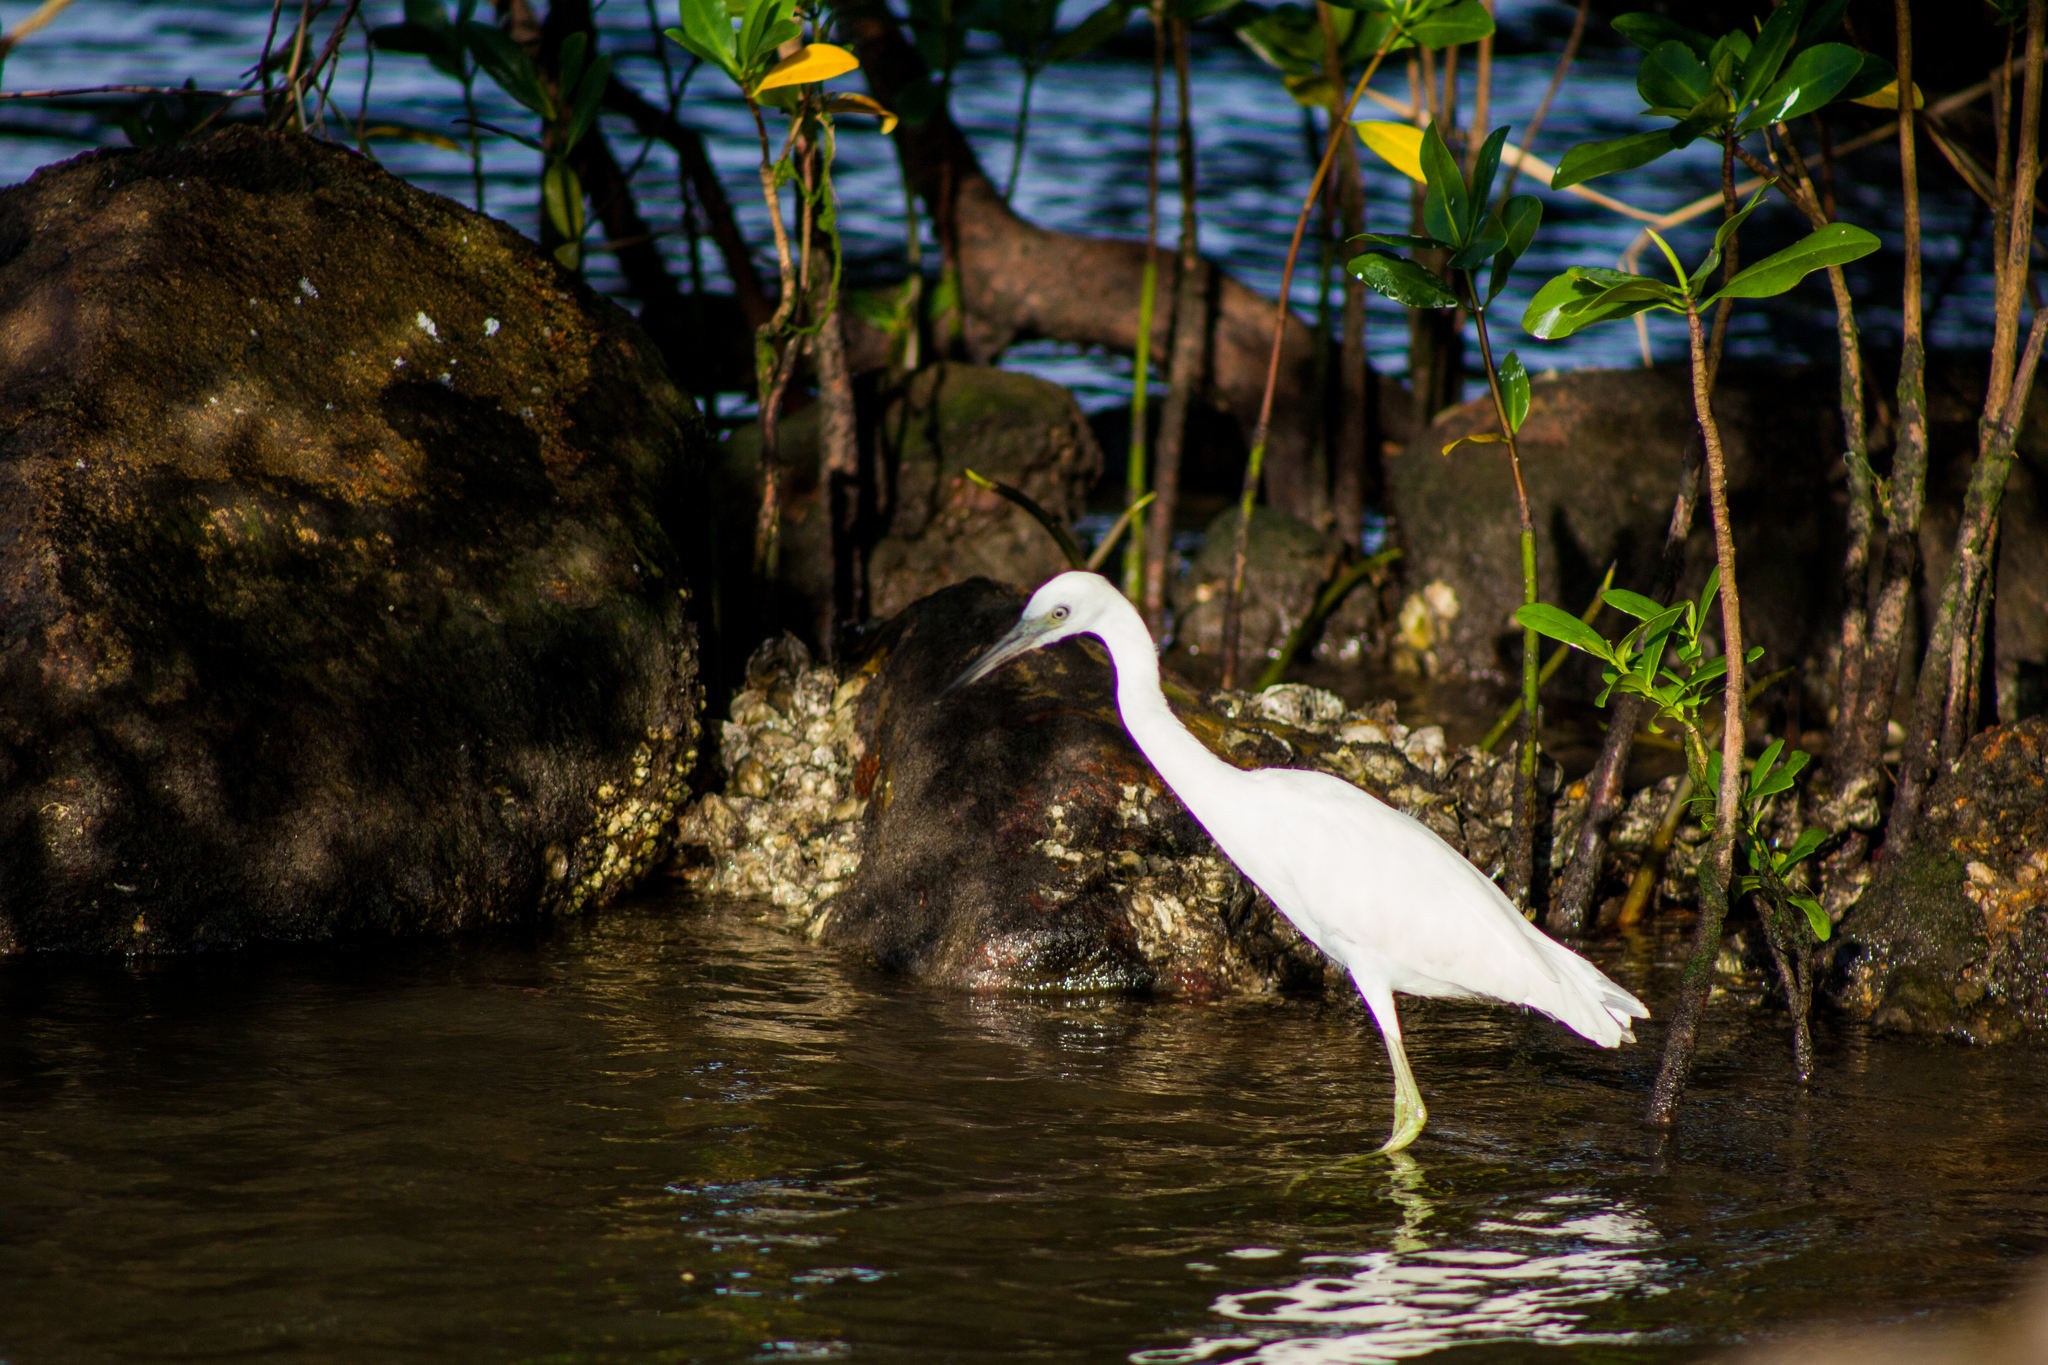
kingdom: Animalia
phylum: Chordata
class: Aves
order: Pelecaniformes
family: Ardeidae
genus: Egretta
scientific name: Egretta thula
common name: Snowy egret
